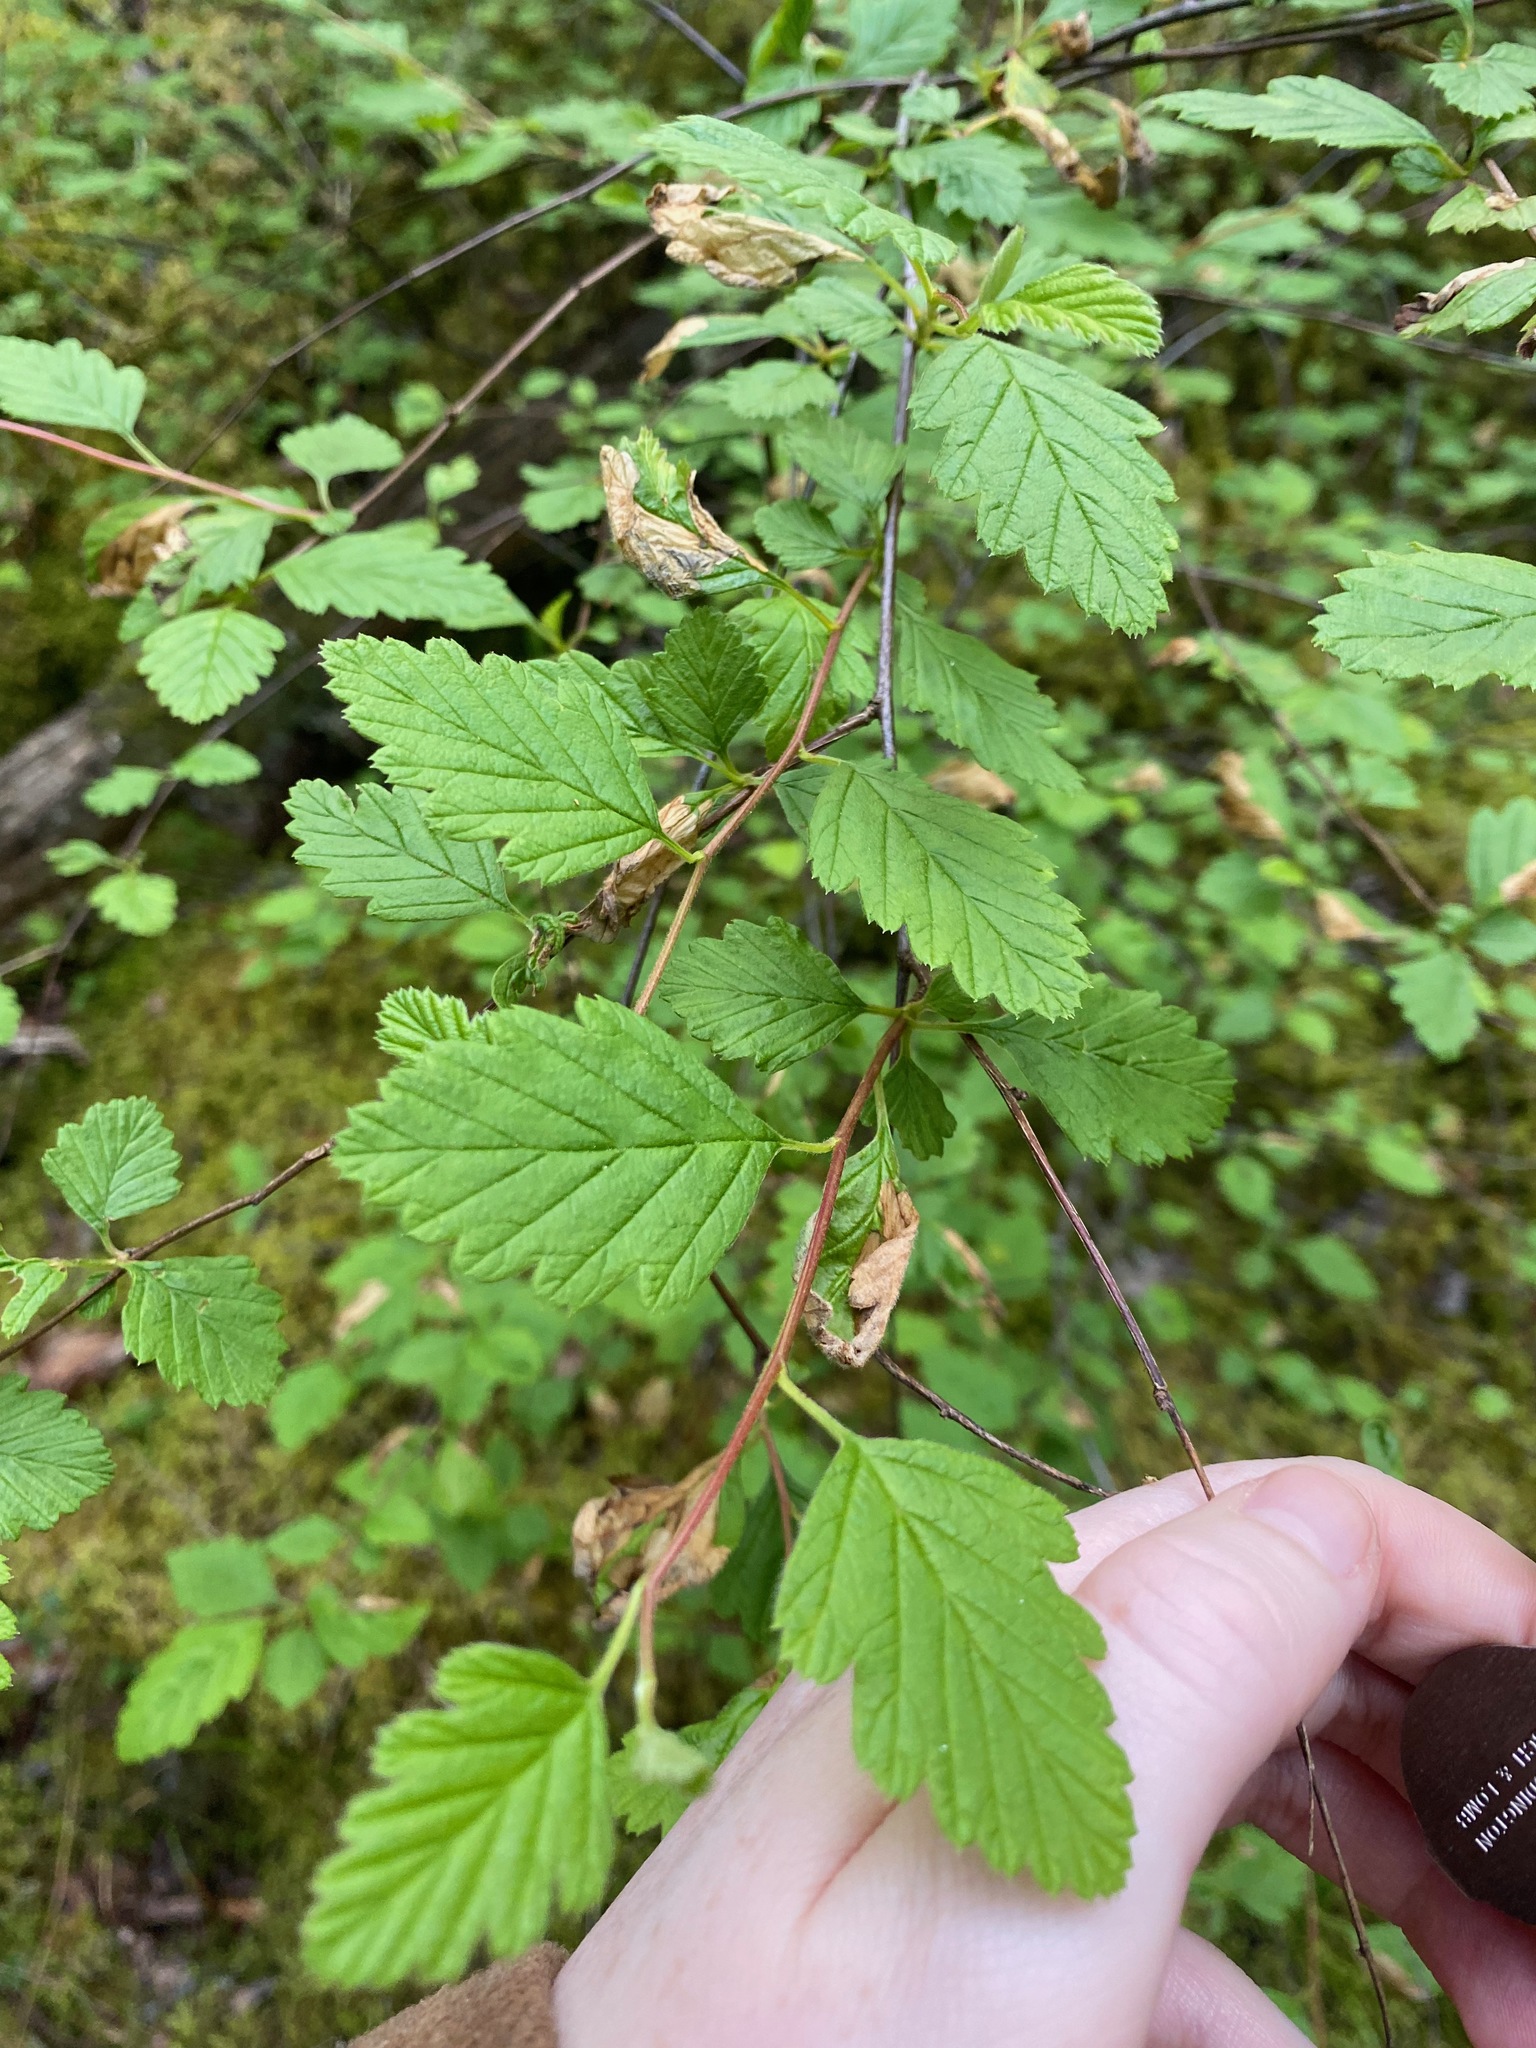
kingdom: Plantae
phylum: Tracheophyta
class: Magnoliopsida
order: Rosales
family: Rosaceae
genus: Holodiscus
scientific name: Holodiscus discolor
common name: Oceanspray
